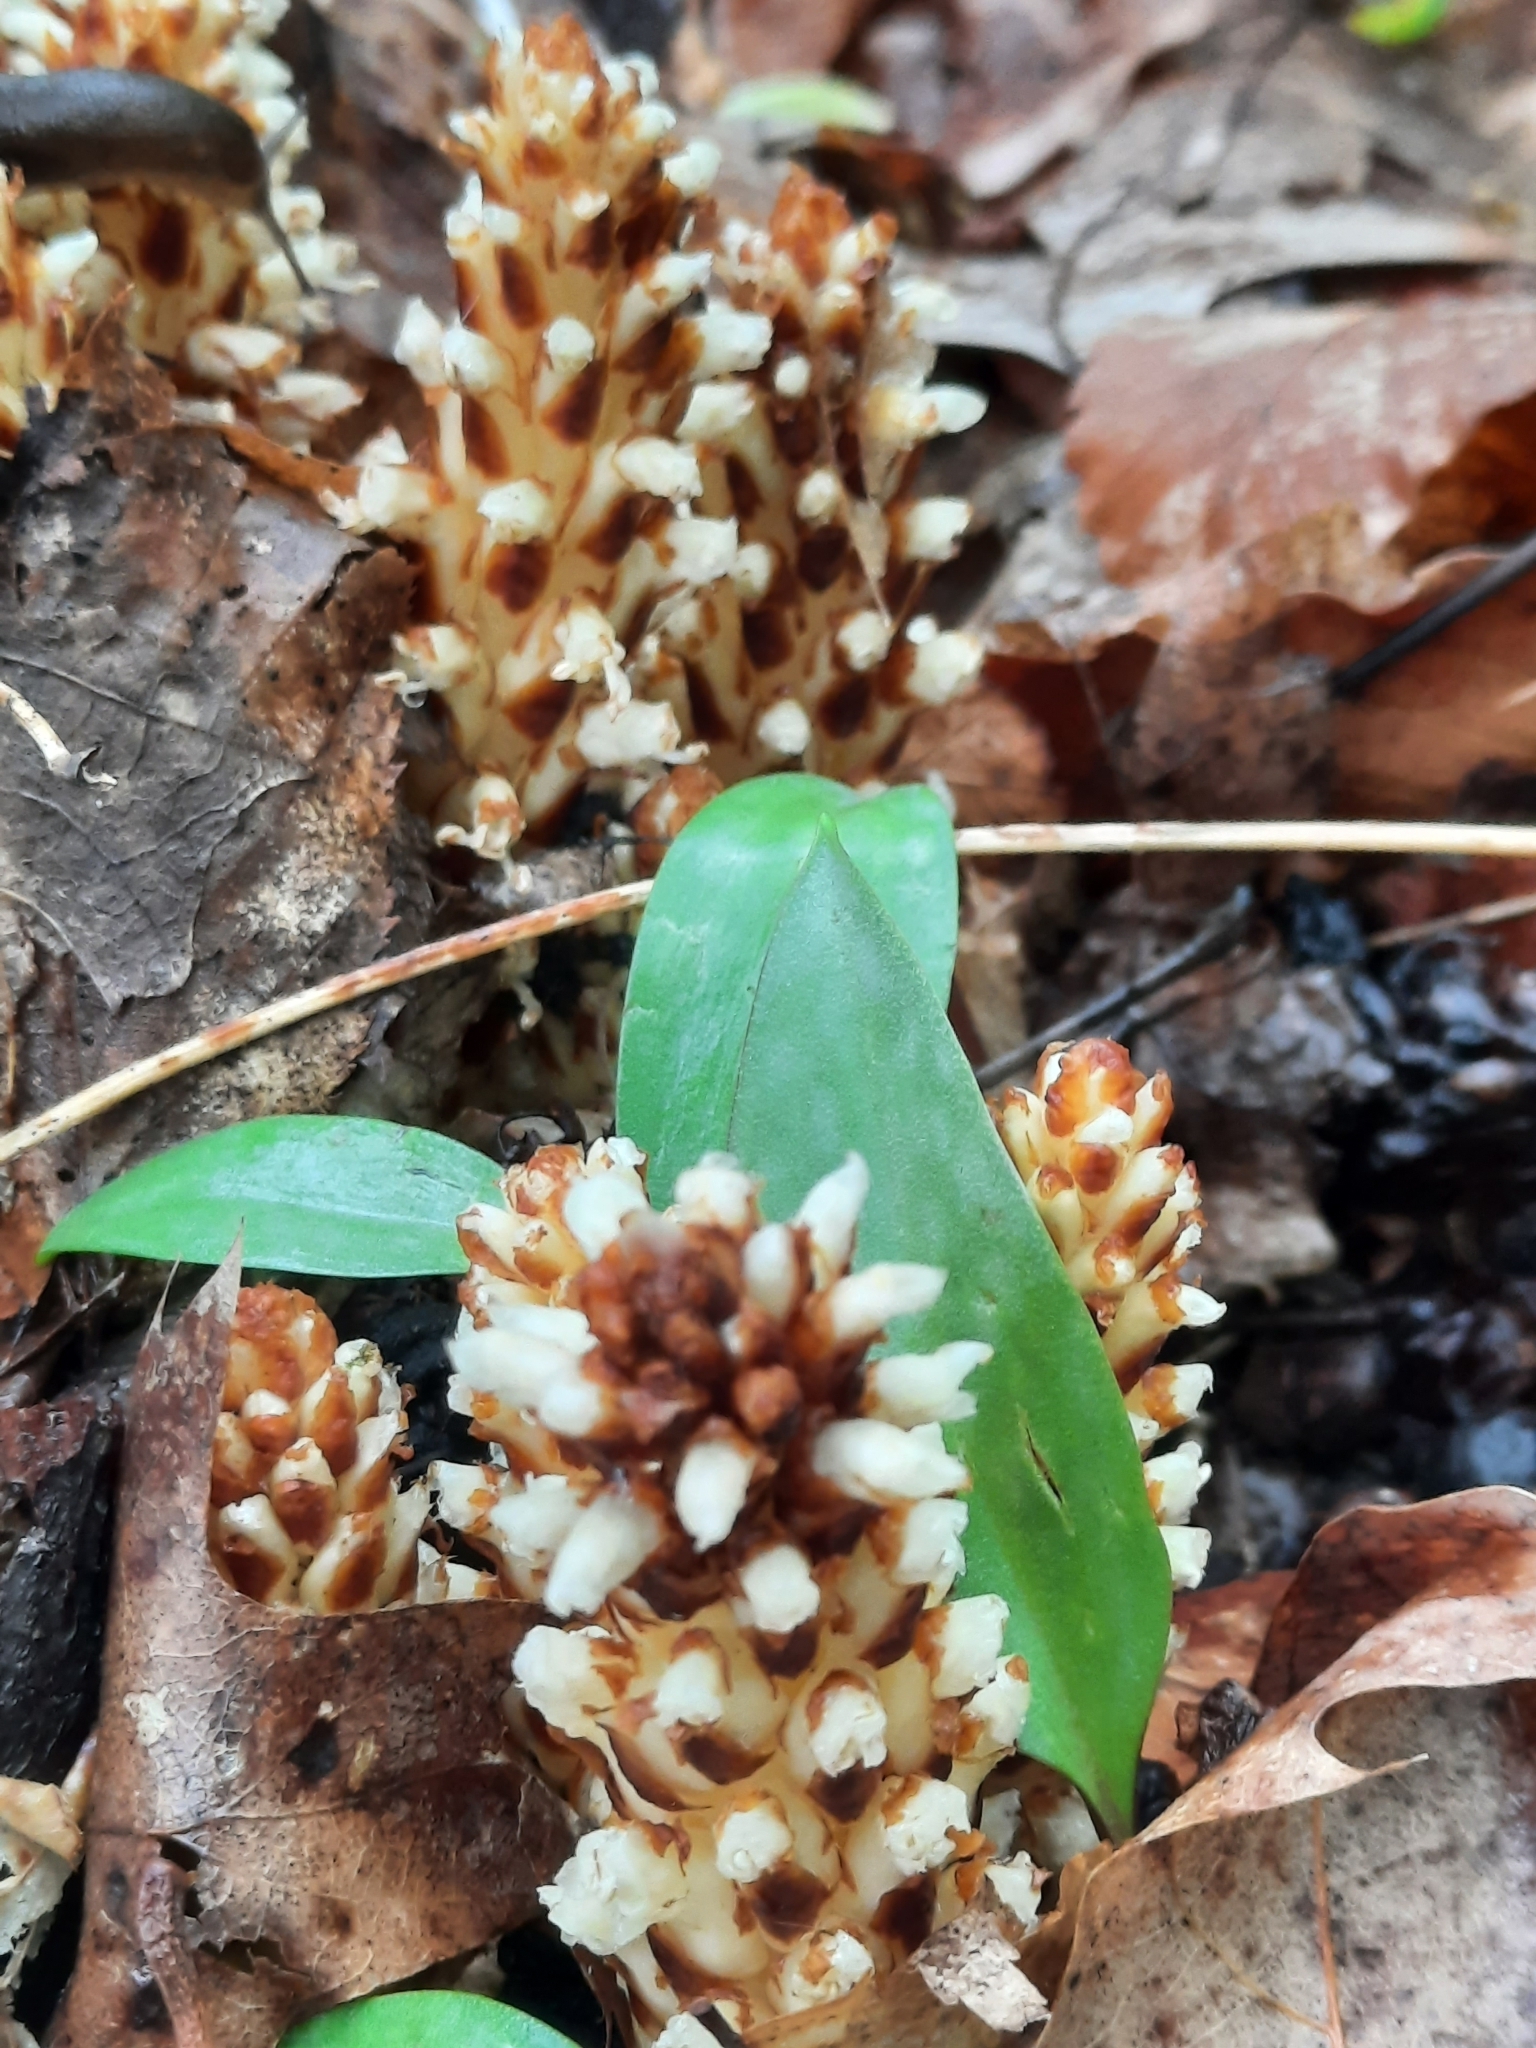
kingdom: Plantae
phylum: Tracheophyta
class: Magnoliopsida
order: Lamiales
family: Orobanchaceae
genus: Conopholis
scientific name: Conopholis americana
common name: American cancer-root
